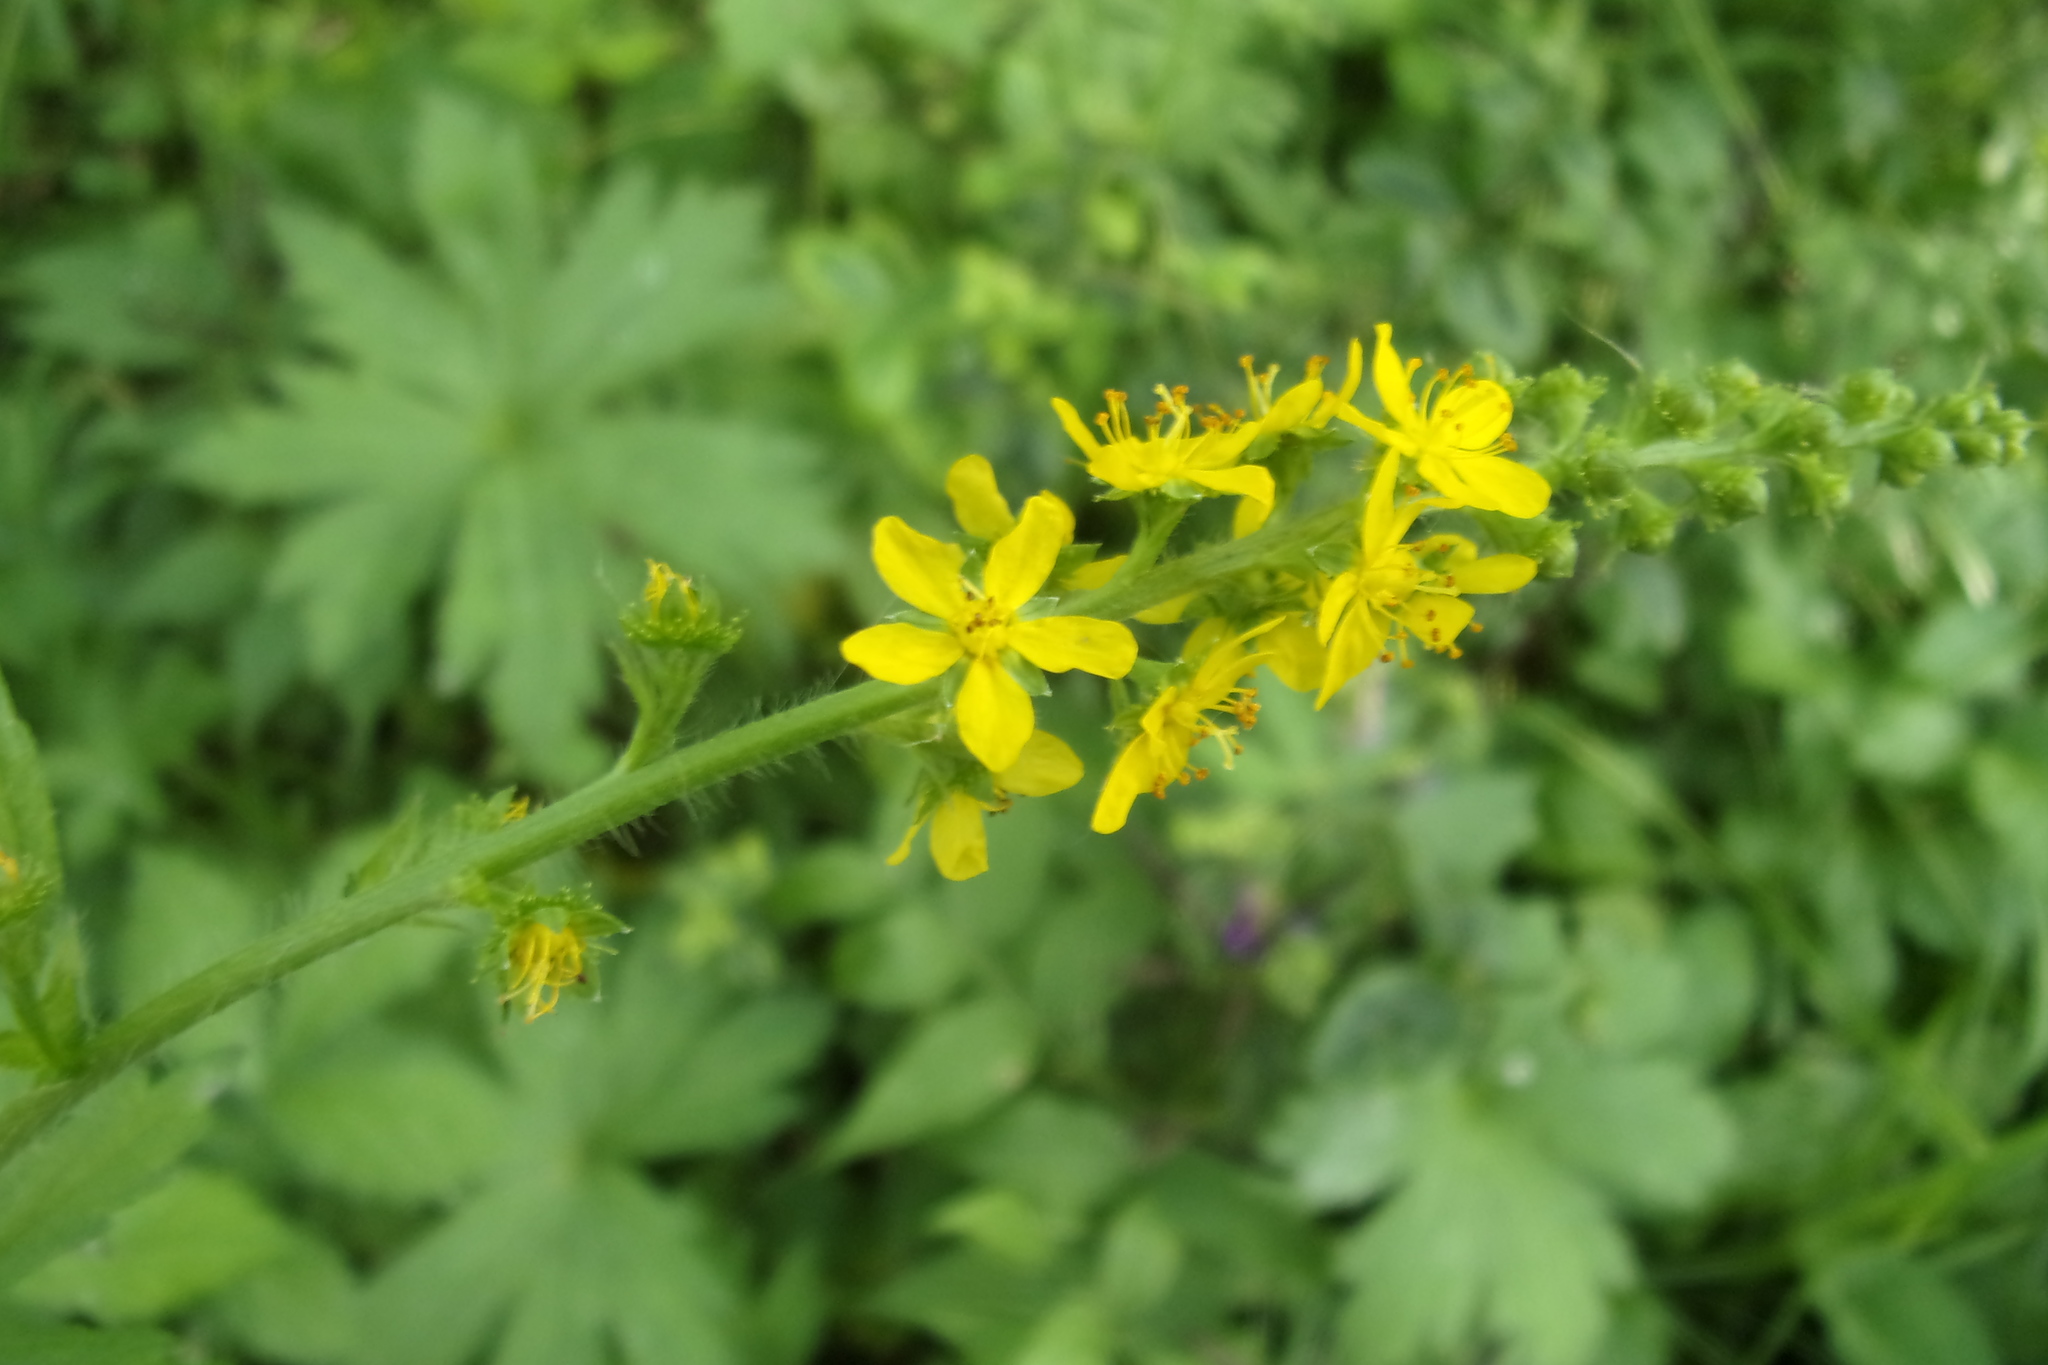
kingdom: Plantae
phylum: Tracheophyta
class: Magnoliopsida
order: Rosales
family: Rosaceae
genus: Agrimonia
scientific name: Agrimonia pilosa
